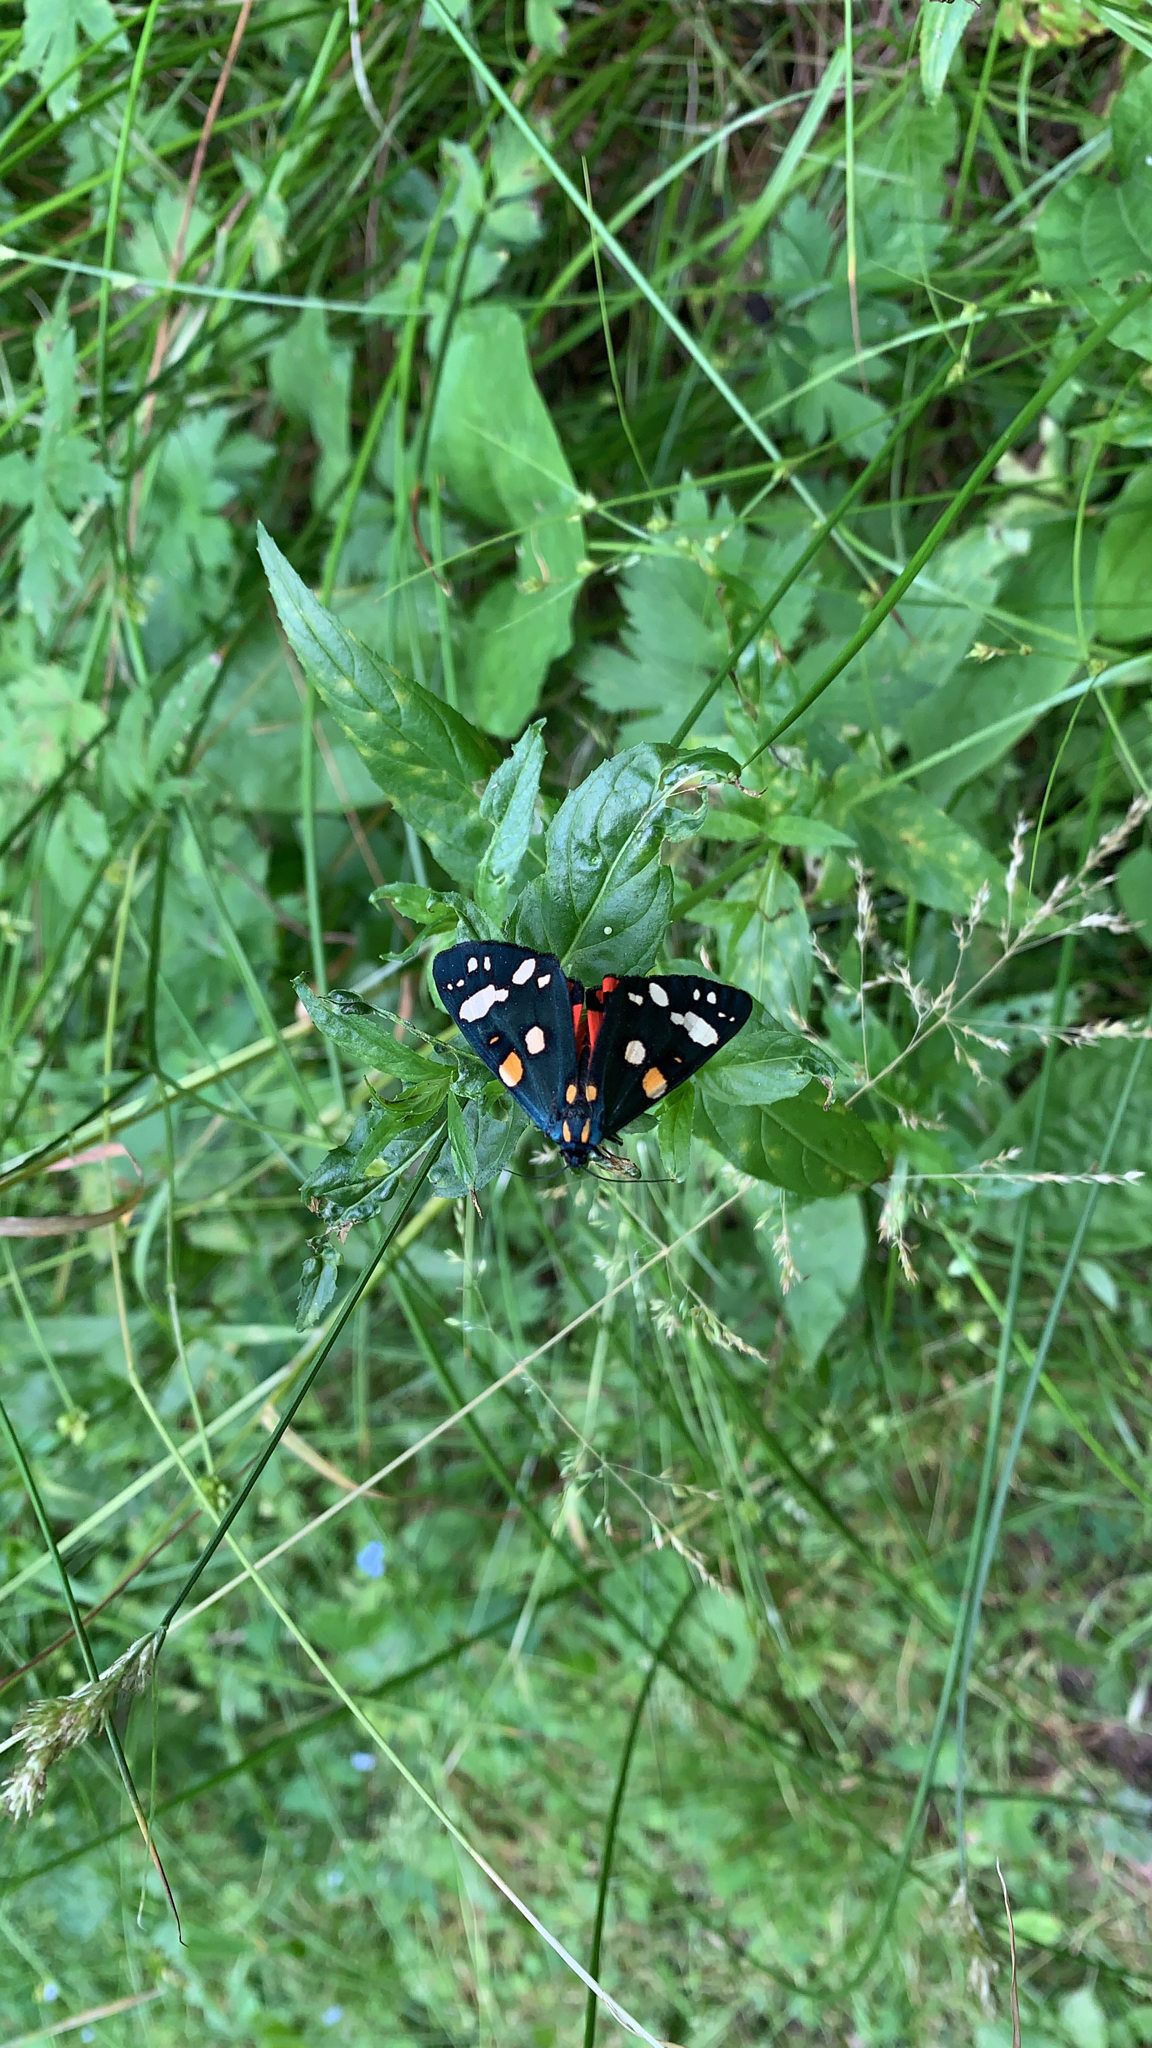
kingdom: Animalia
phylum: Arthropoda
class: Insecta
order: Lepidoptera
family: Erebidae
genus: Callimorpha
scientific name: Callimorpha dominula
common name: Scarlet tiger
